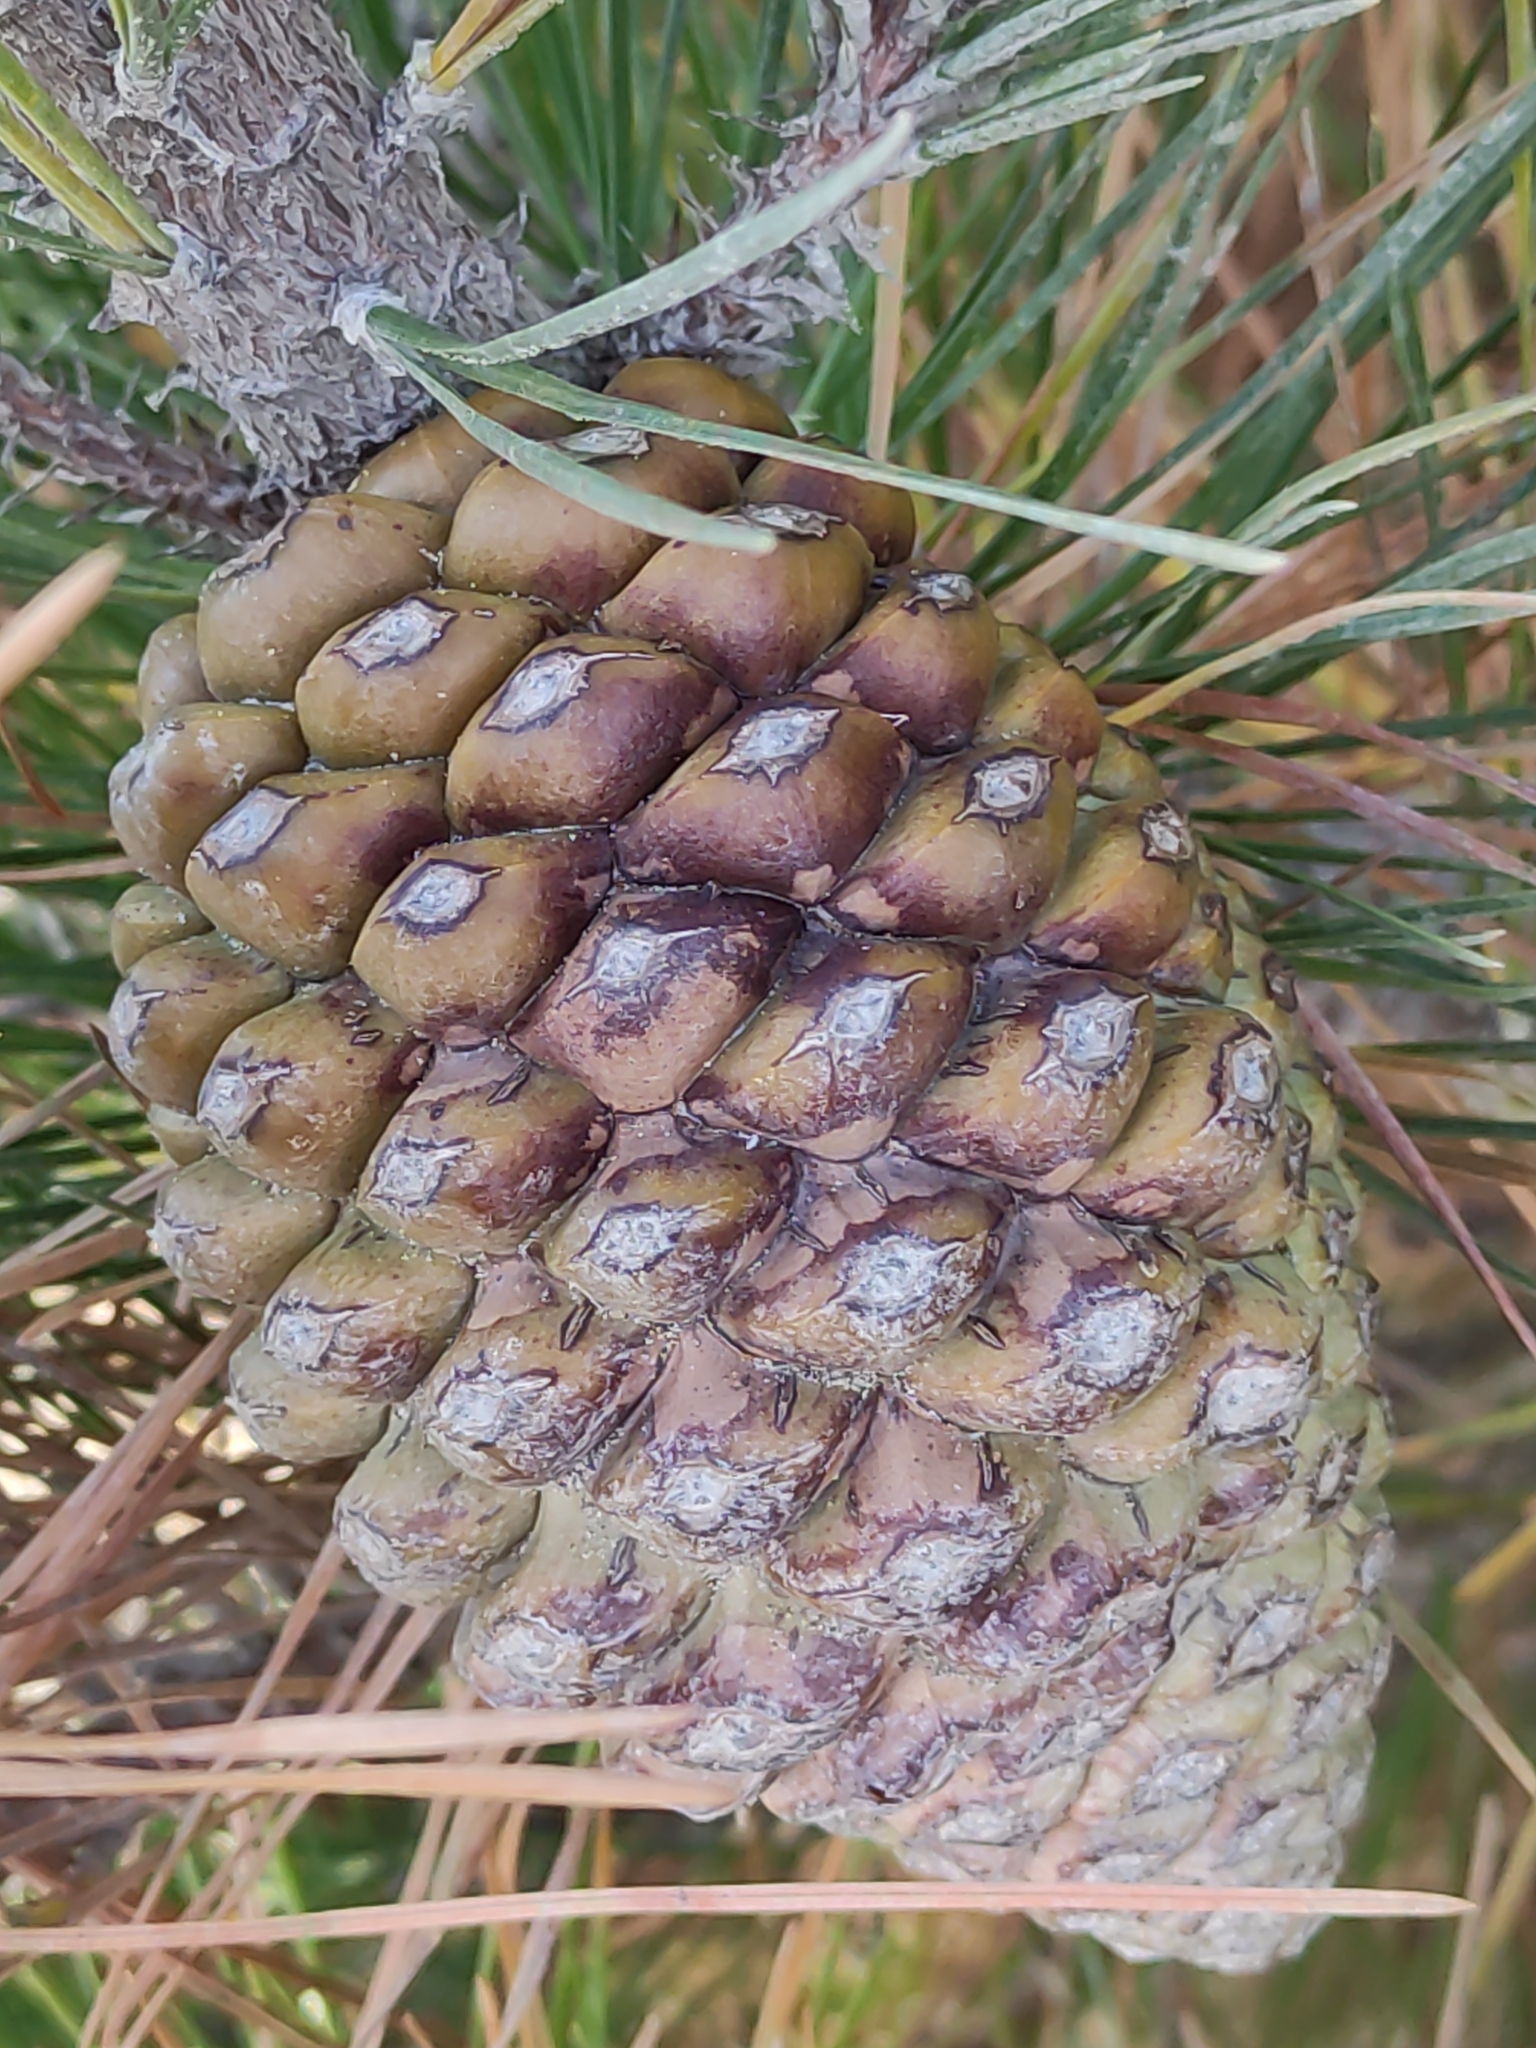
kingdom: Plantae
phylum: Tracheophyta
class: Pinopsida
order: Pinales
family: Pinaceae
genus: Pinus
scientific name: Pinus radiata
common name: Monterey pine
